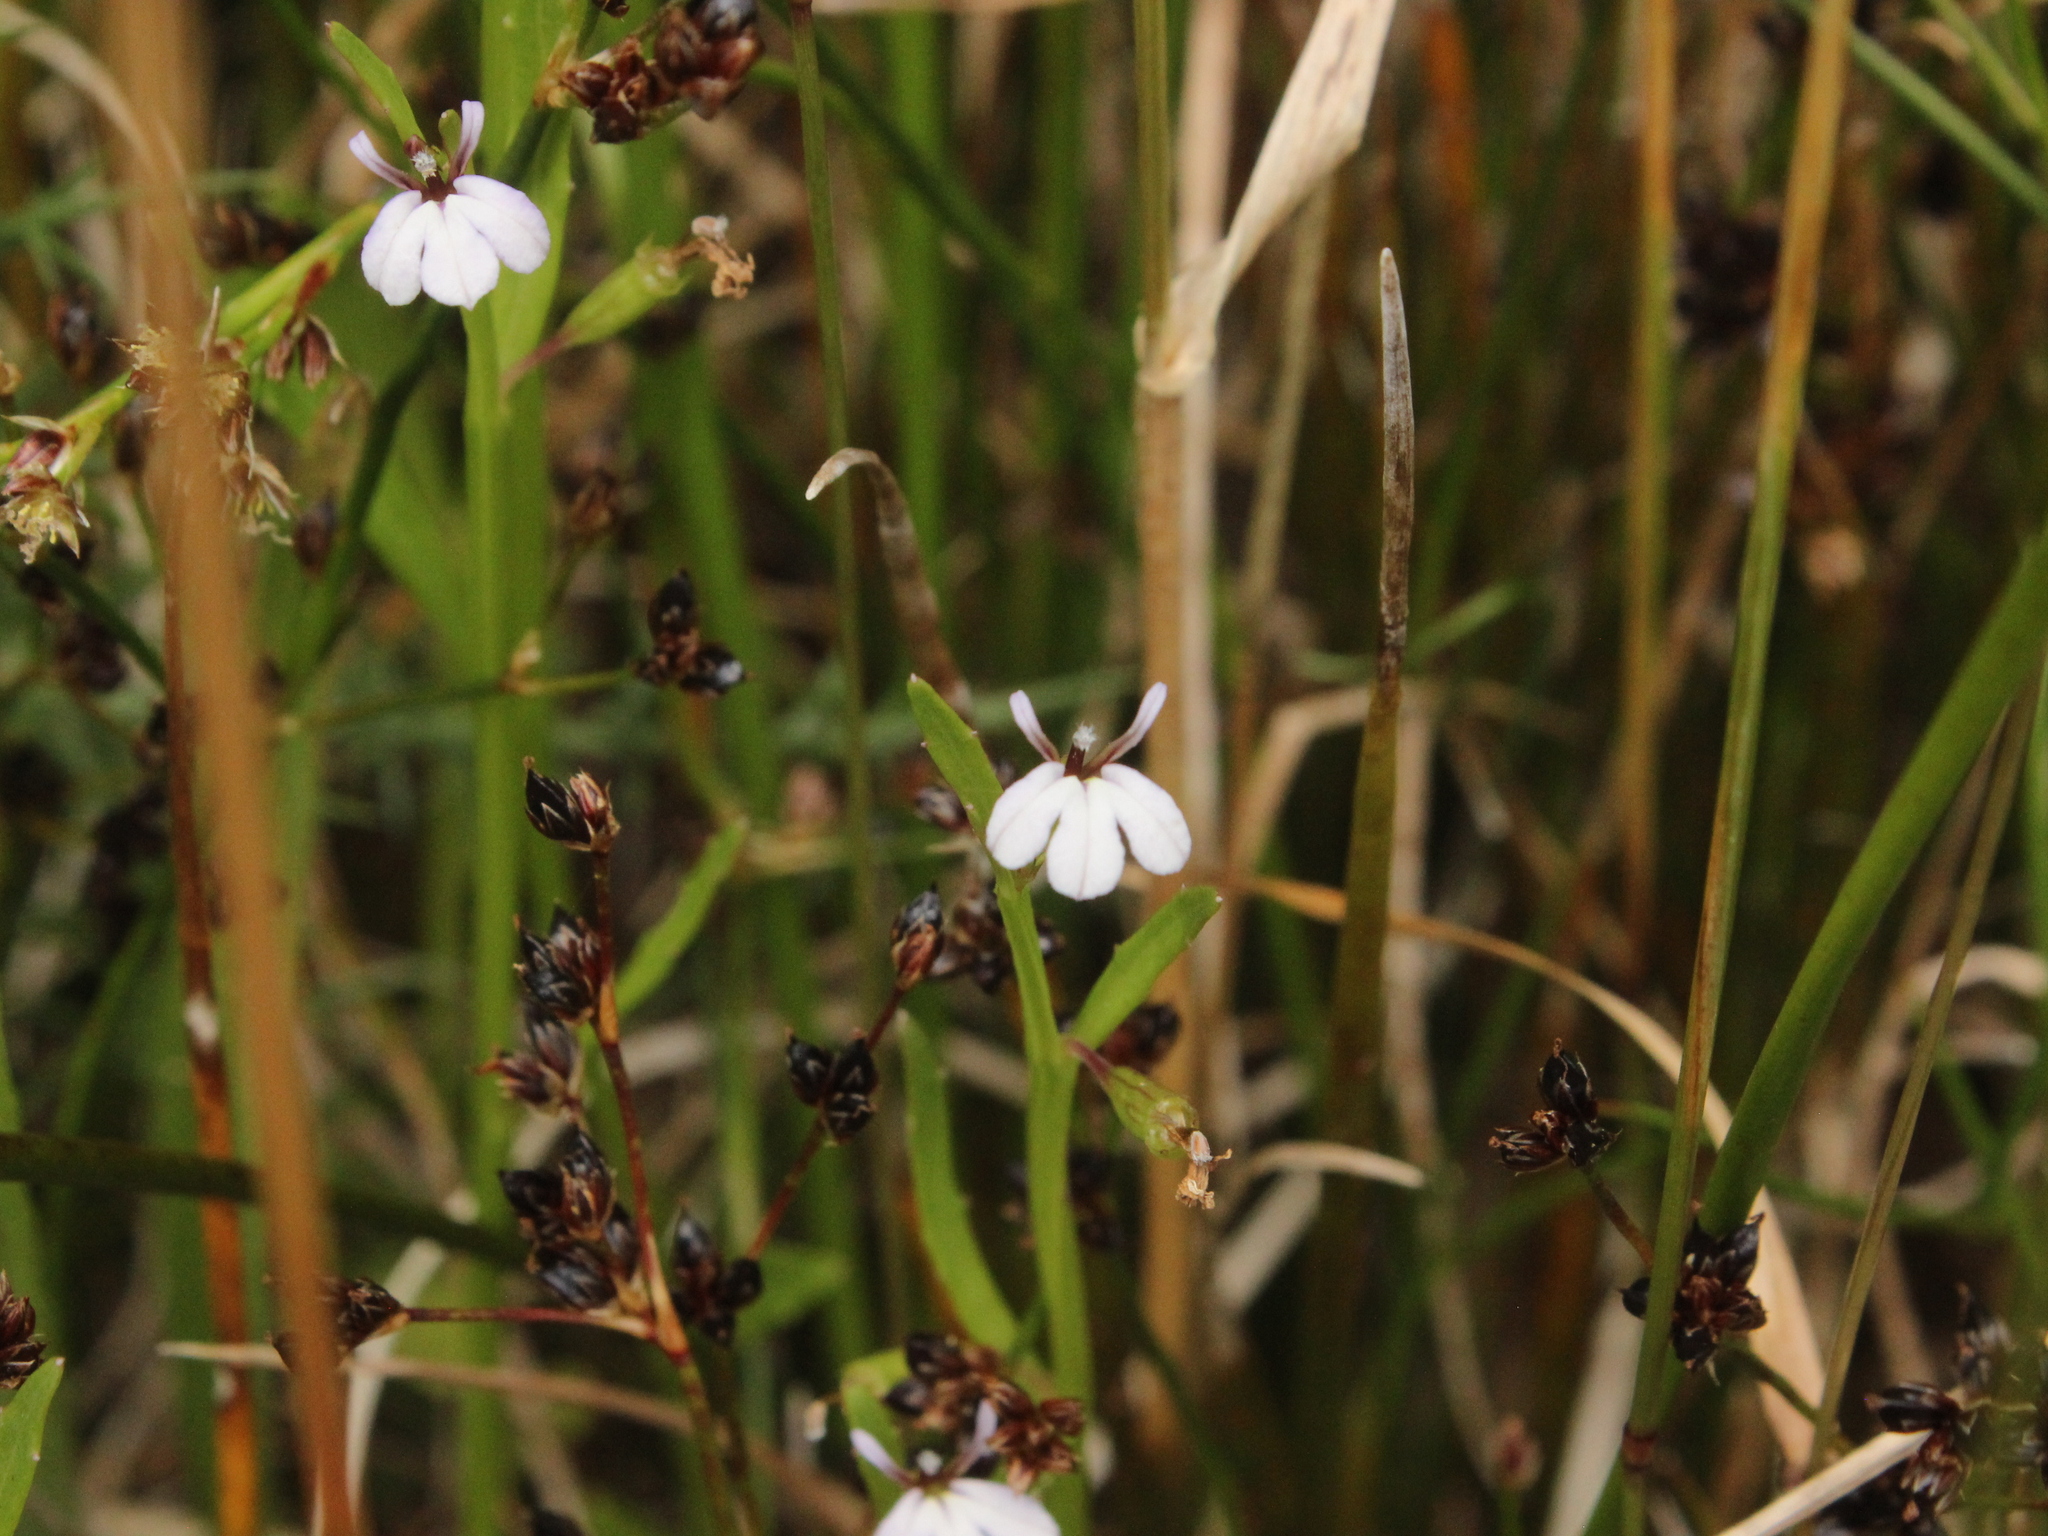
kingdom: Plantae
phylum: Tracheophyta
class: Magnoliopsida
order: Asterales
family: Campanulaceae
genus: Lobelia
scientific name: Lobelia anceps
